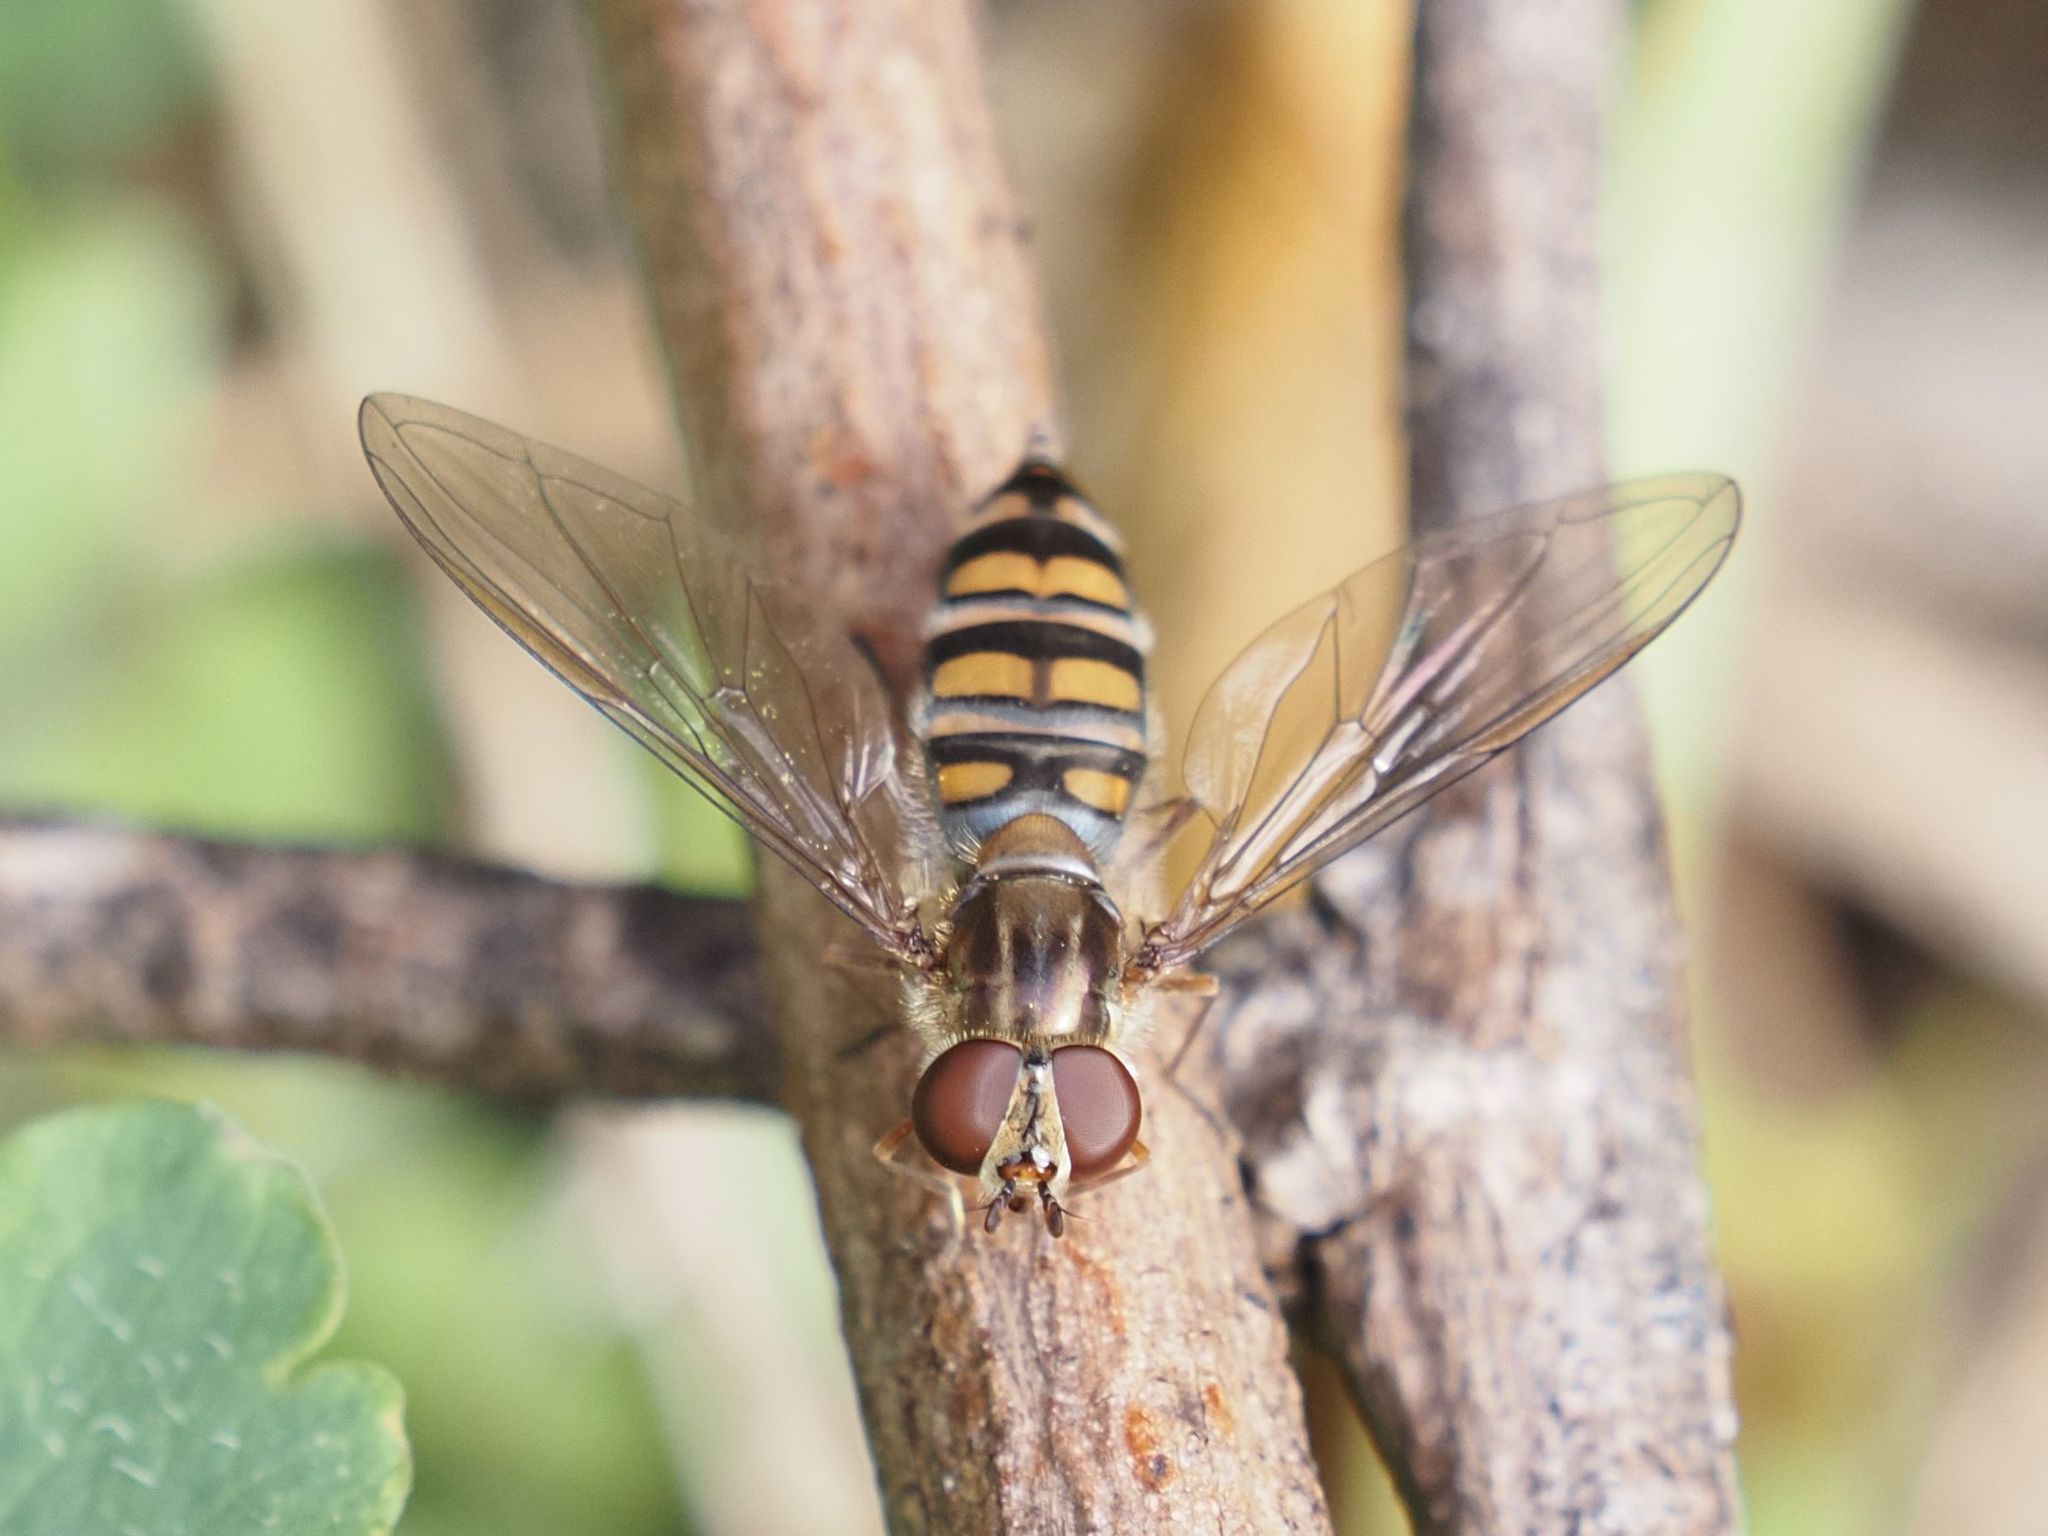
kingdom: Animalia
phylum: Arthropoda
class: Insecta
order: Diptera
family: Syrphidae
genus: Episyrphus
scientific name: Episyrphus balteatus
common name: Marmalade hoverfly
